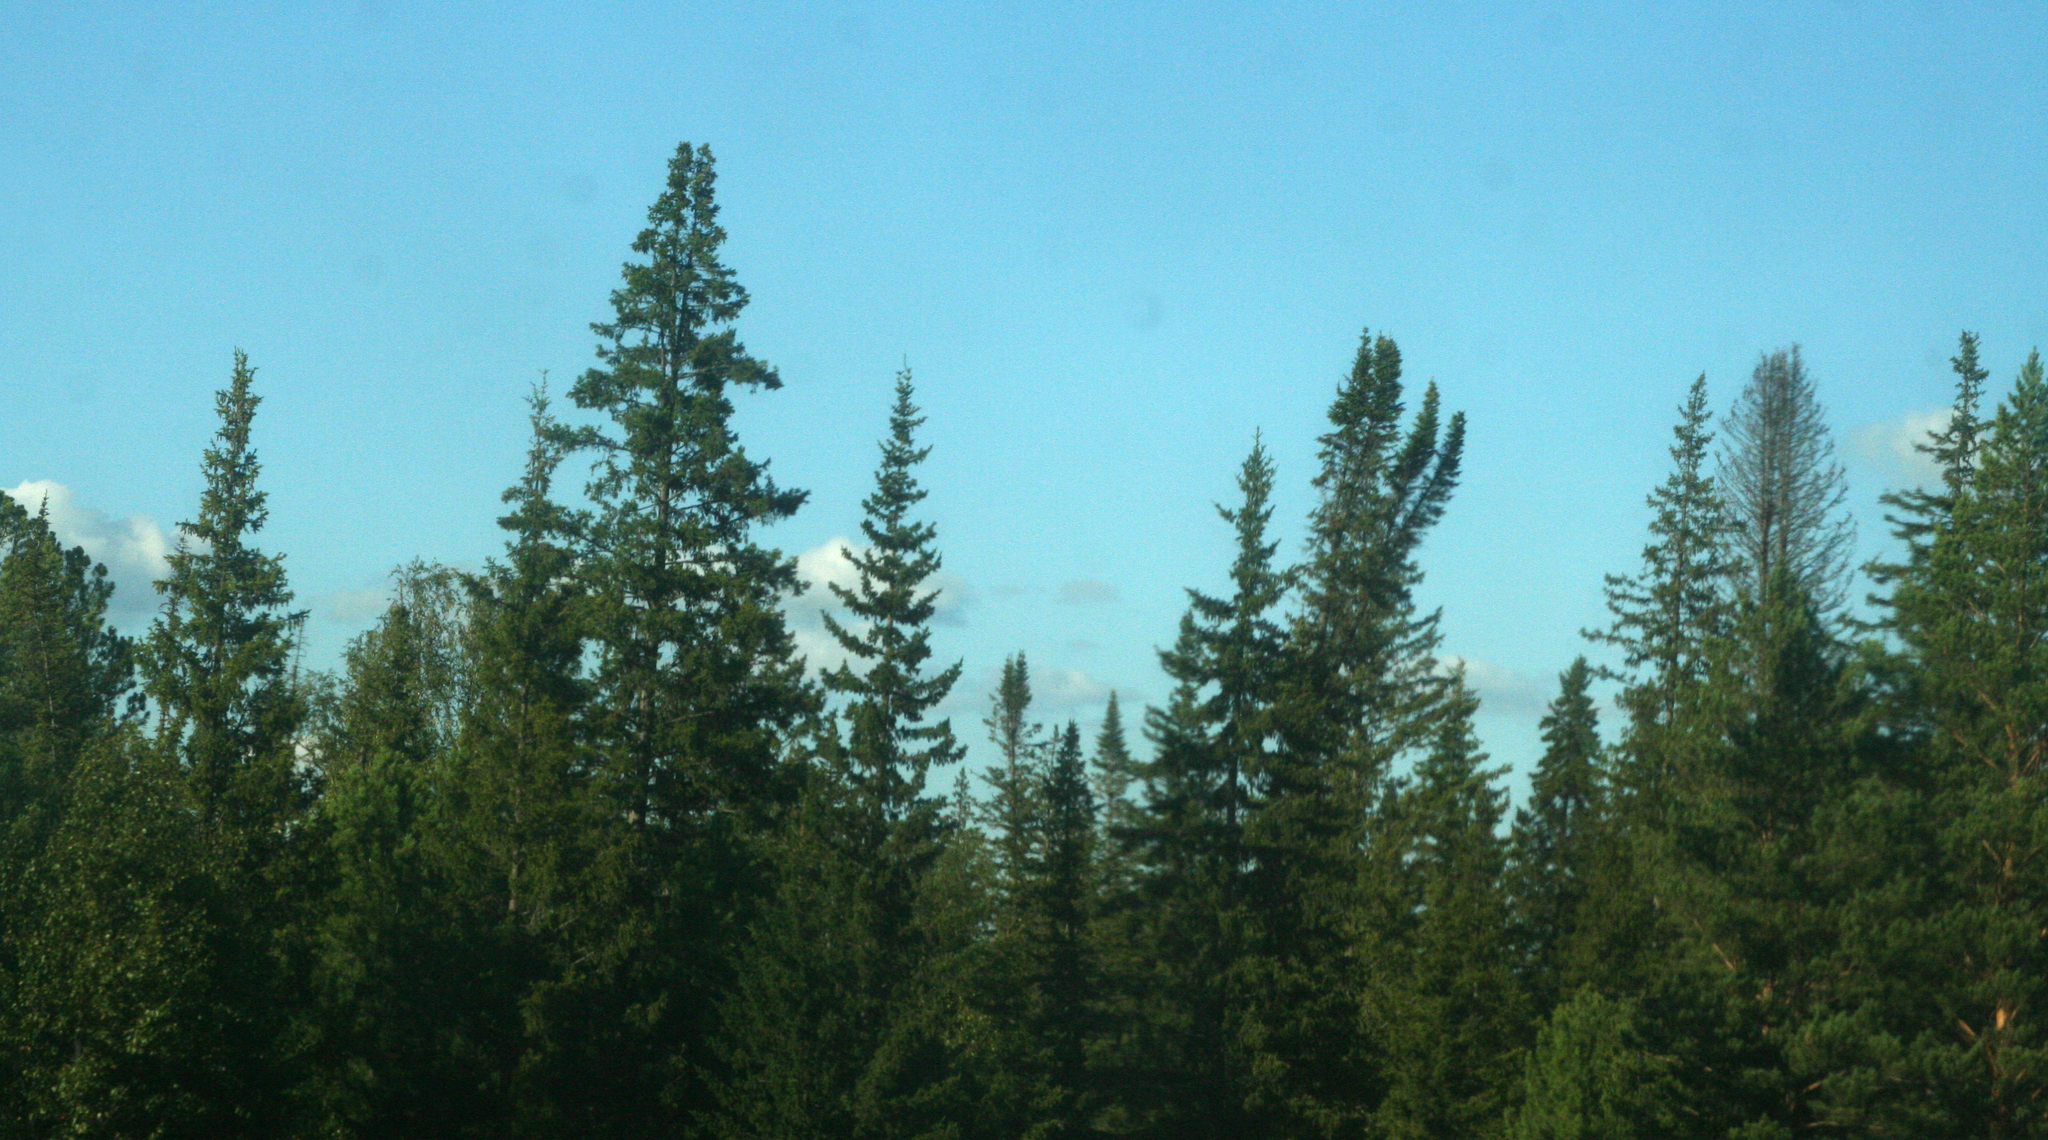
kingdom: Plantae
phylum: Tracheophyta
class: Pinopsida
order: Pinales
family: Pinaceae
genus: Picea
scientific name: Picea obovata
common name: Siberian spruce
